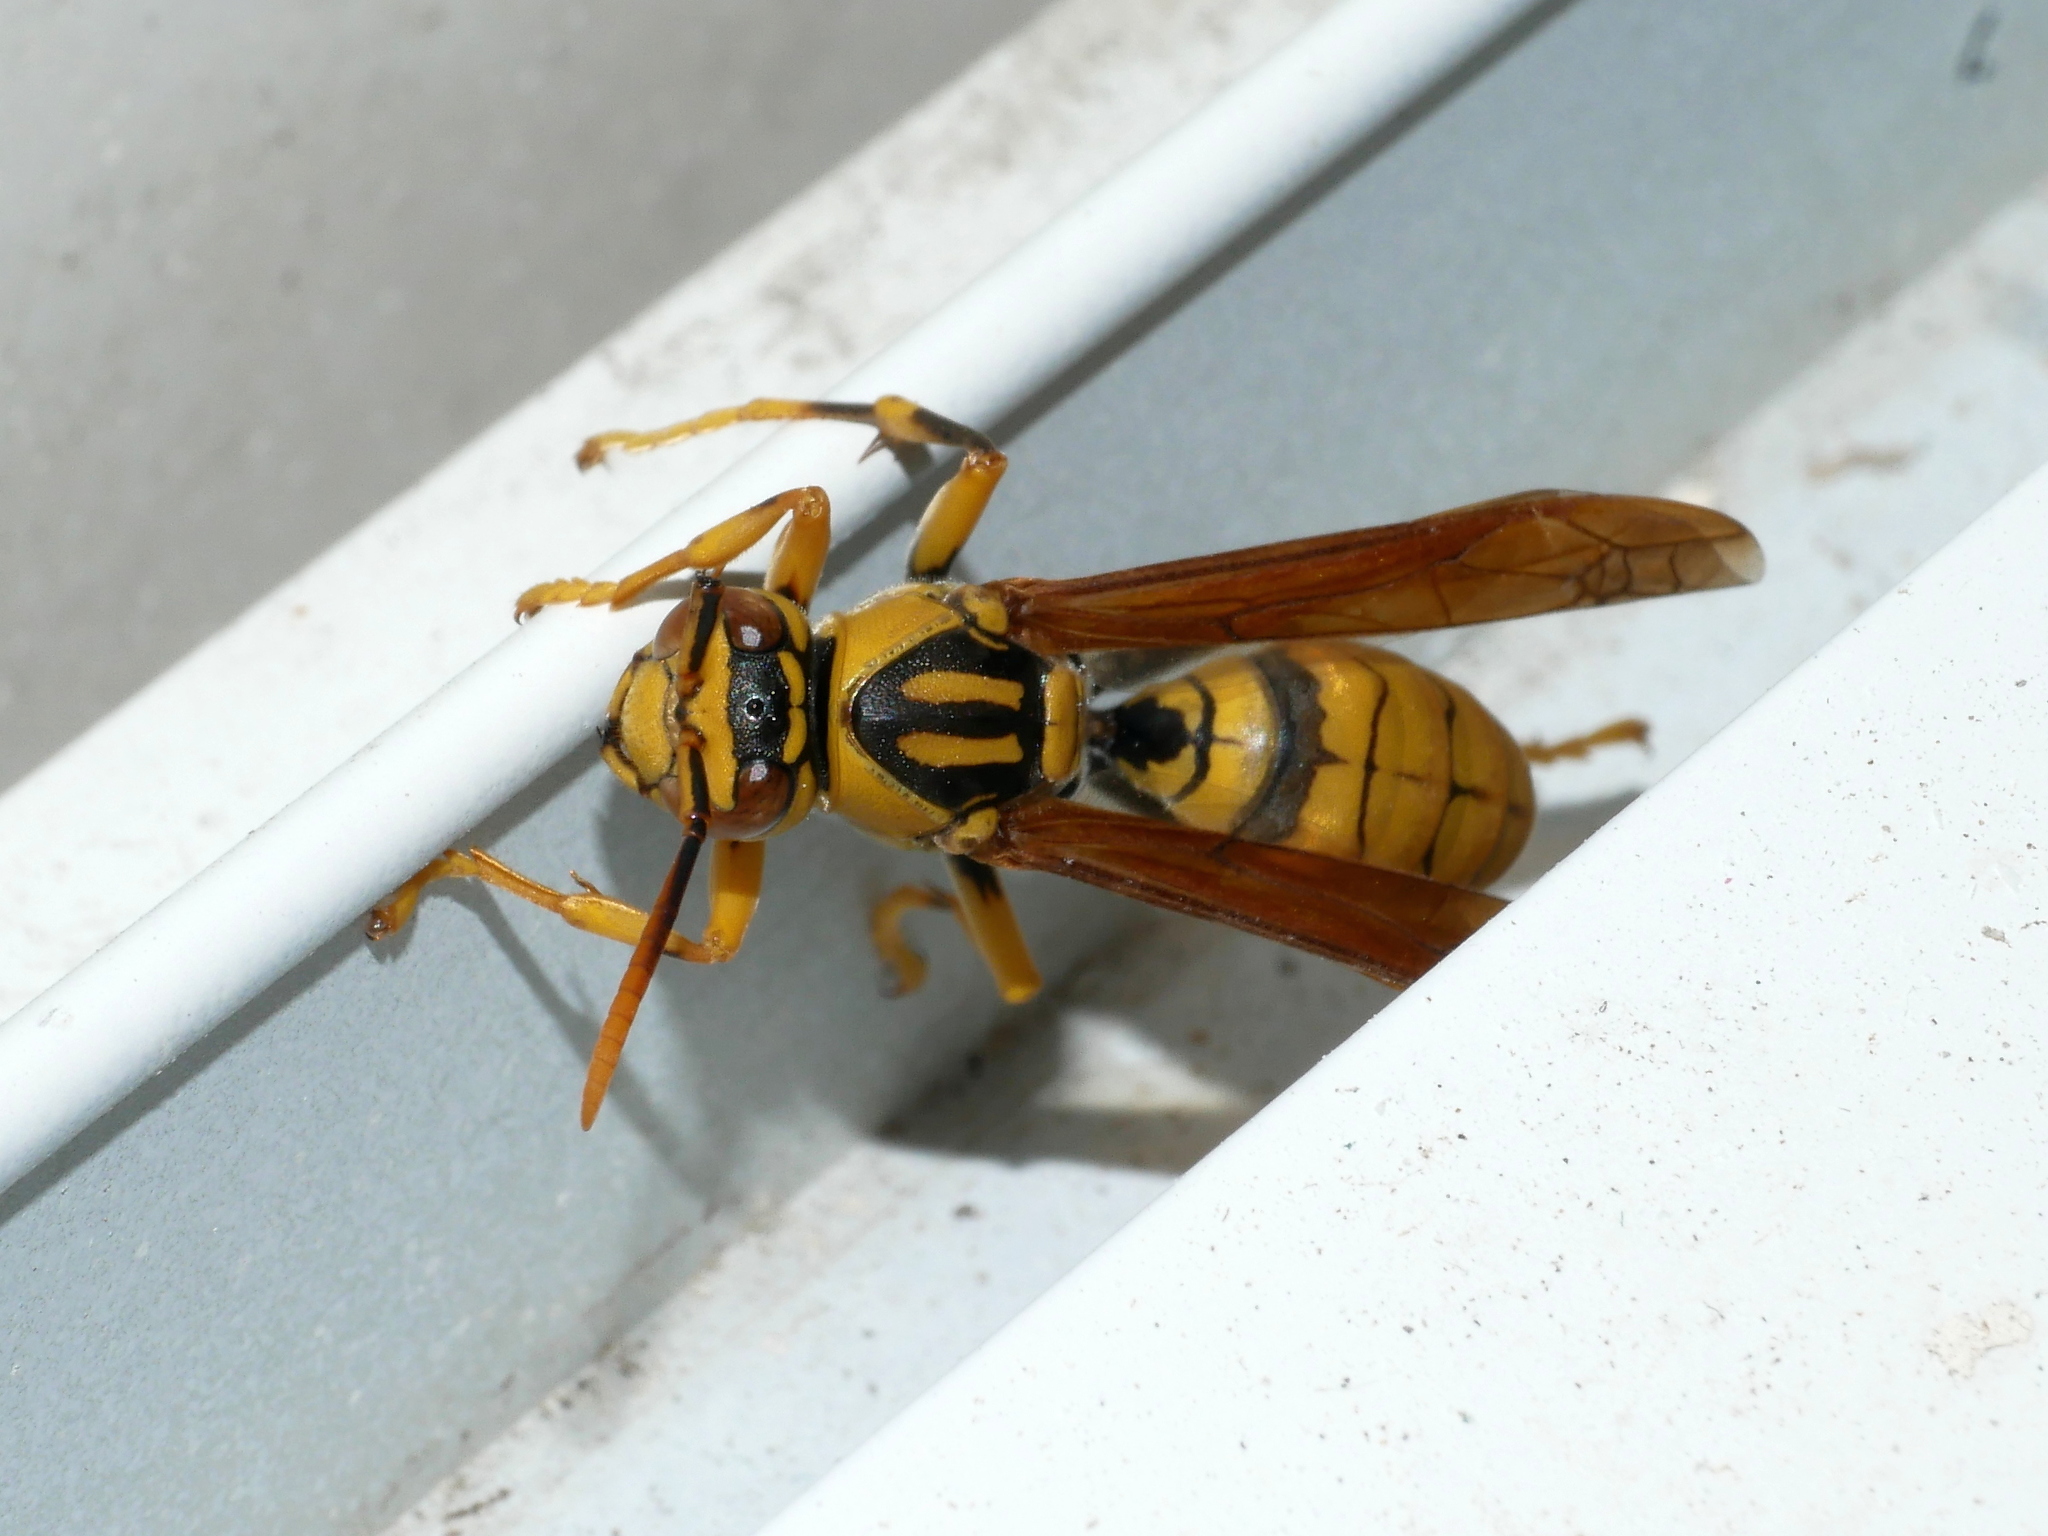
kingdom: Animalia
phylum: Arthropoda
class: Insecta
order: Hymenoptera
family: Eumenidae
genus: Polistes
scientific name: Polistes rothneyi
